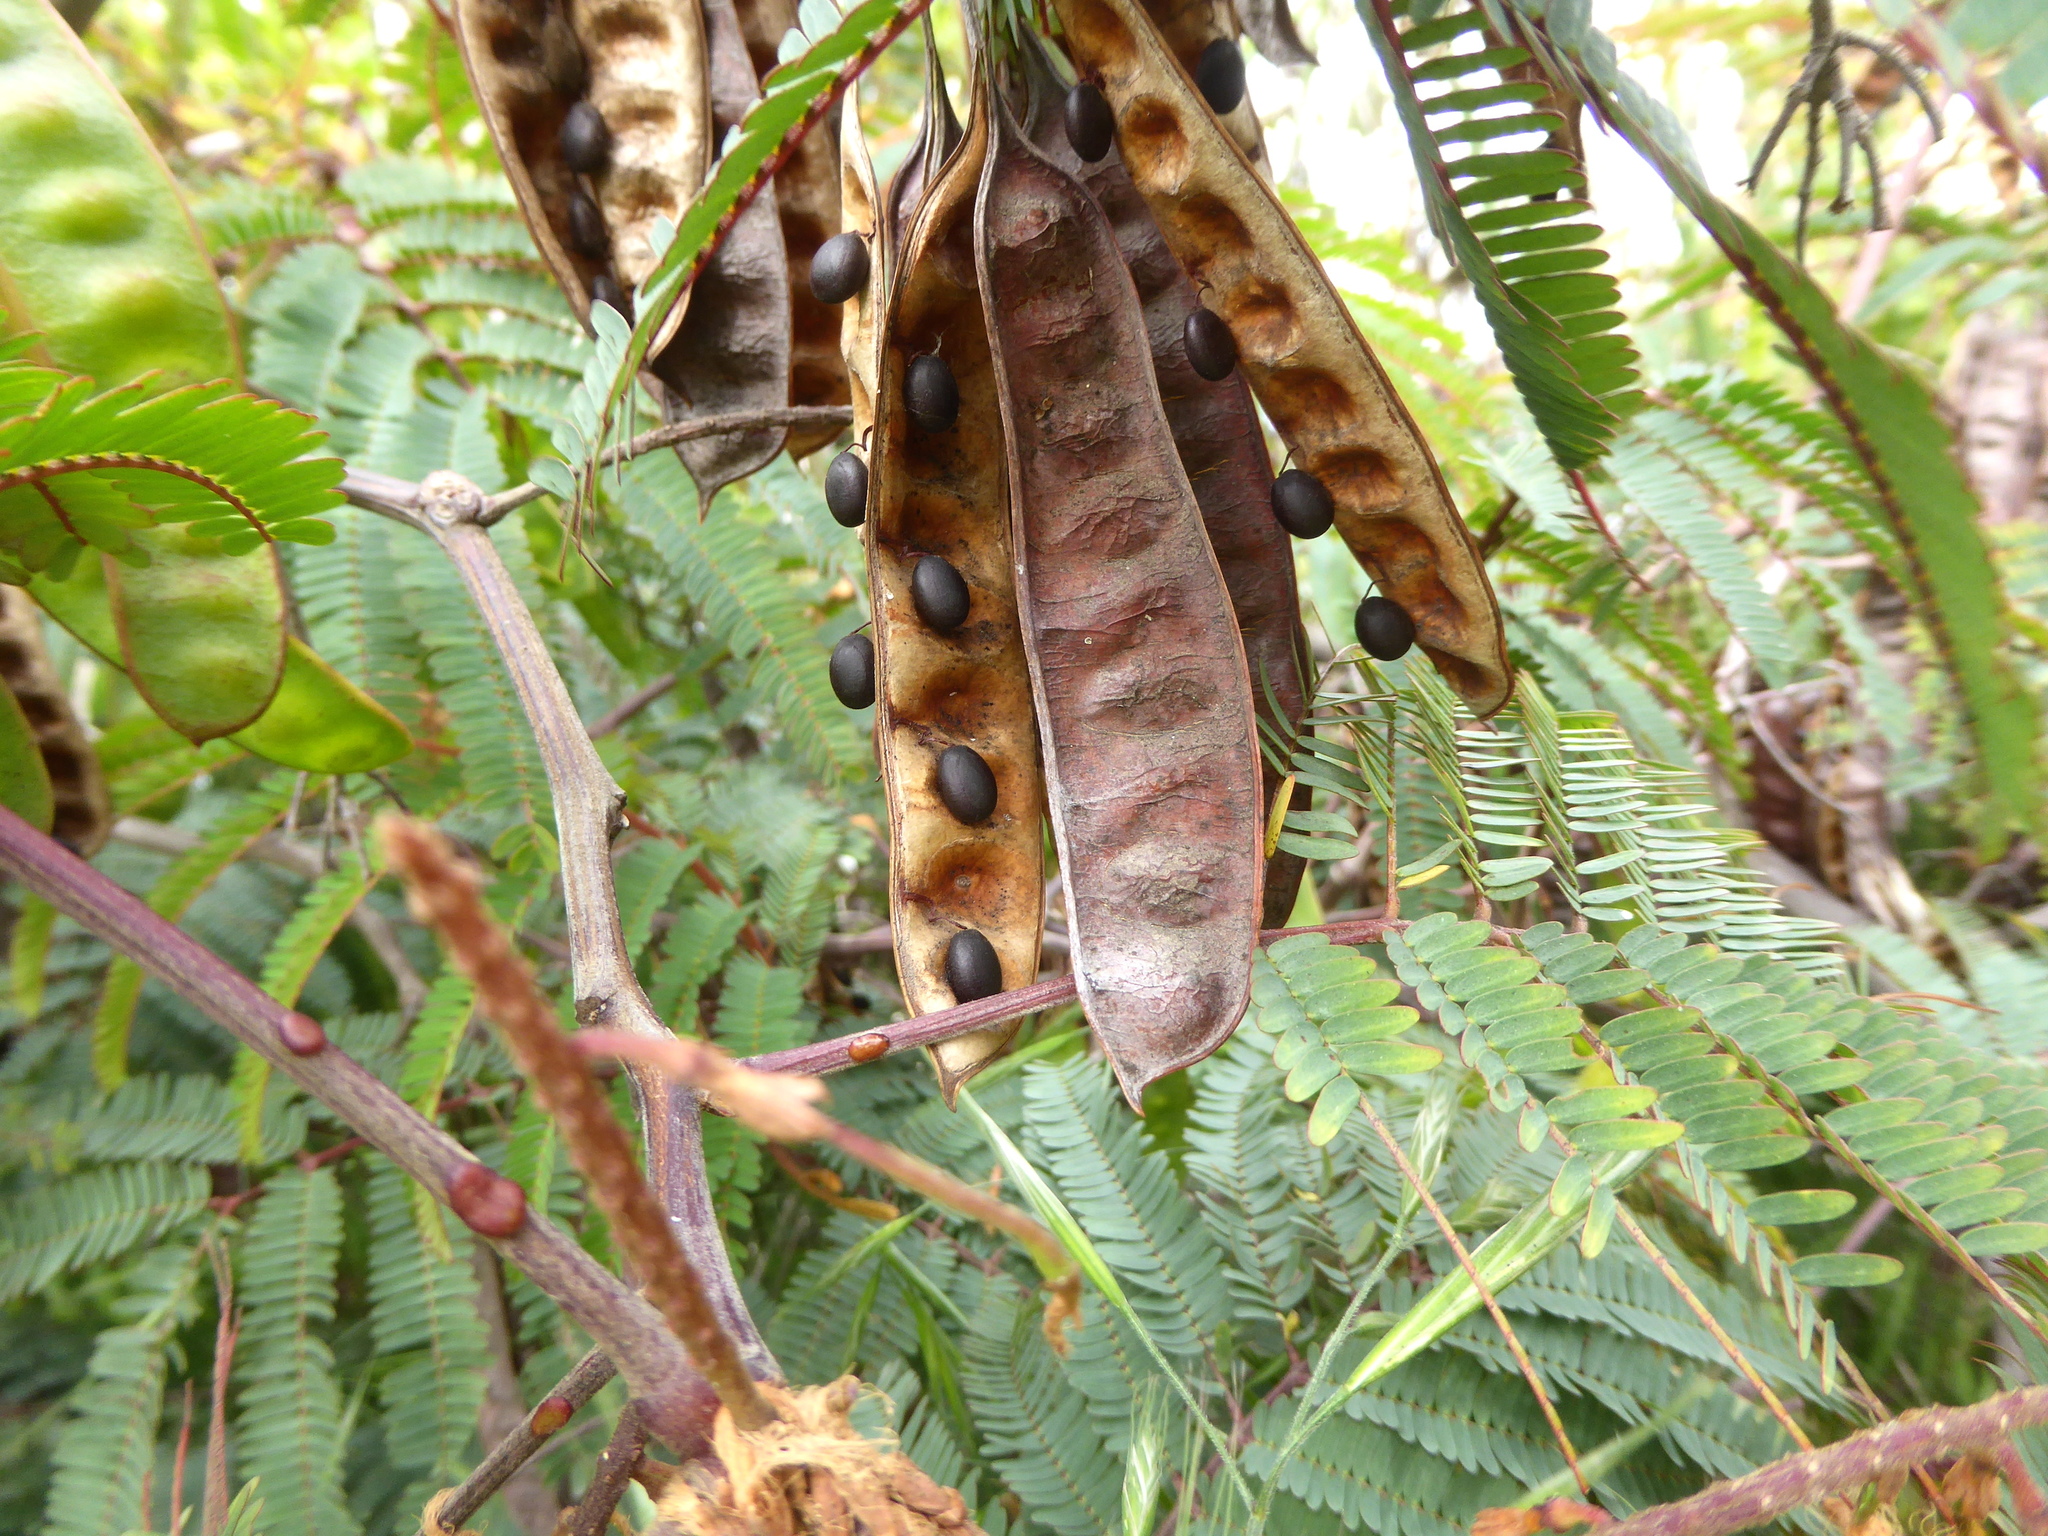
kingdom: Plantae
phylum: Tracheophyta
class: Magnoliopsida
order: Fabales
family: Fabaceae
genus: Paraserianthes
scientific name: Paraserianthes lophantha
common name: Plume albizia
